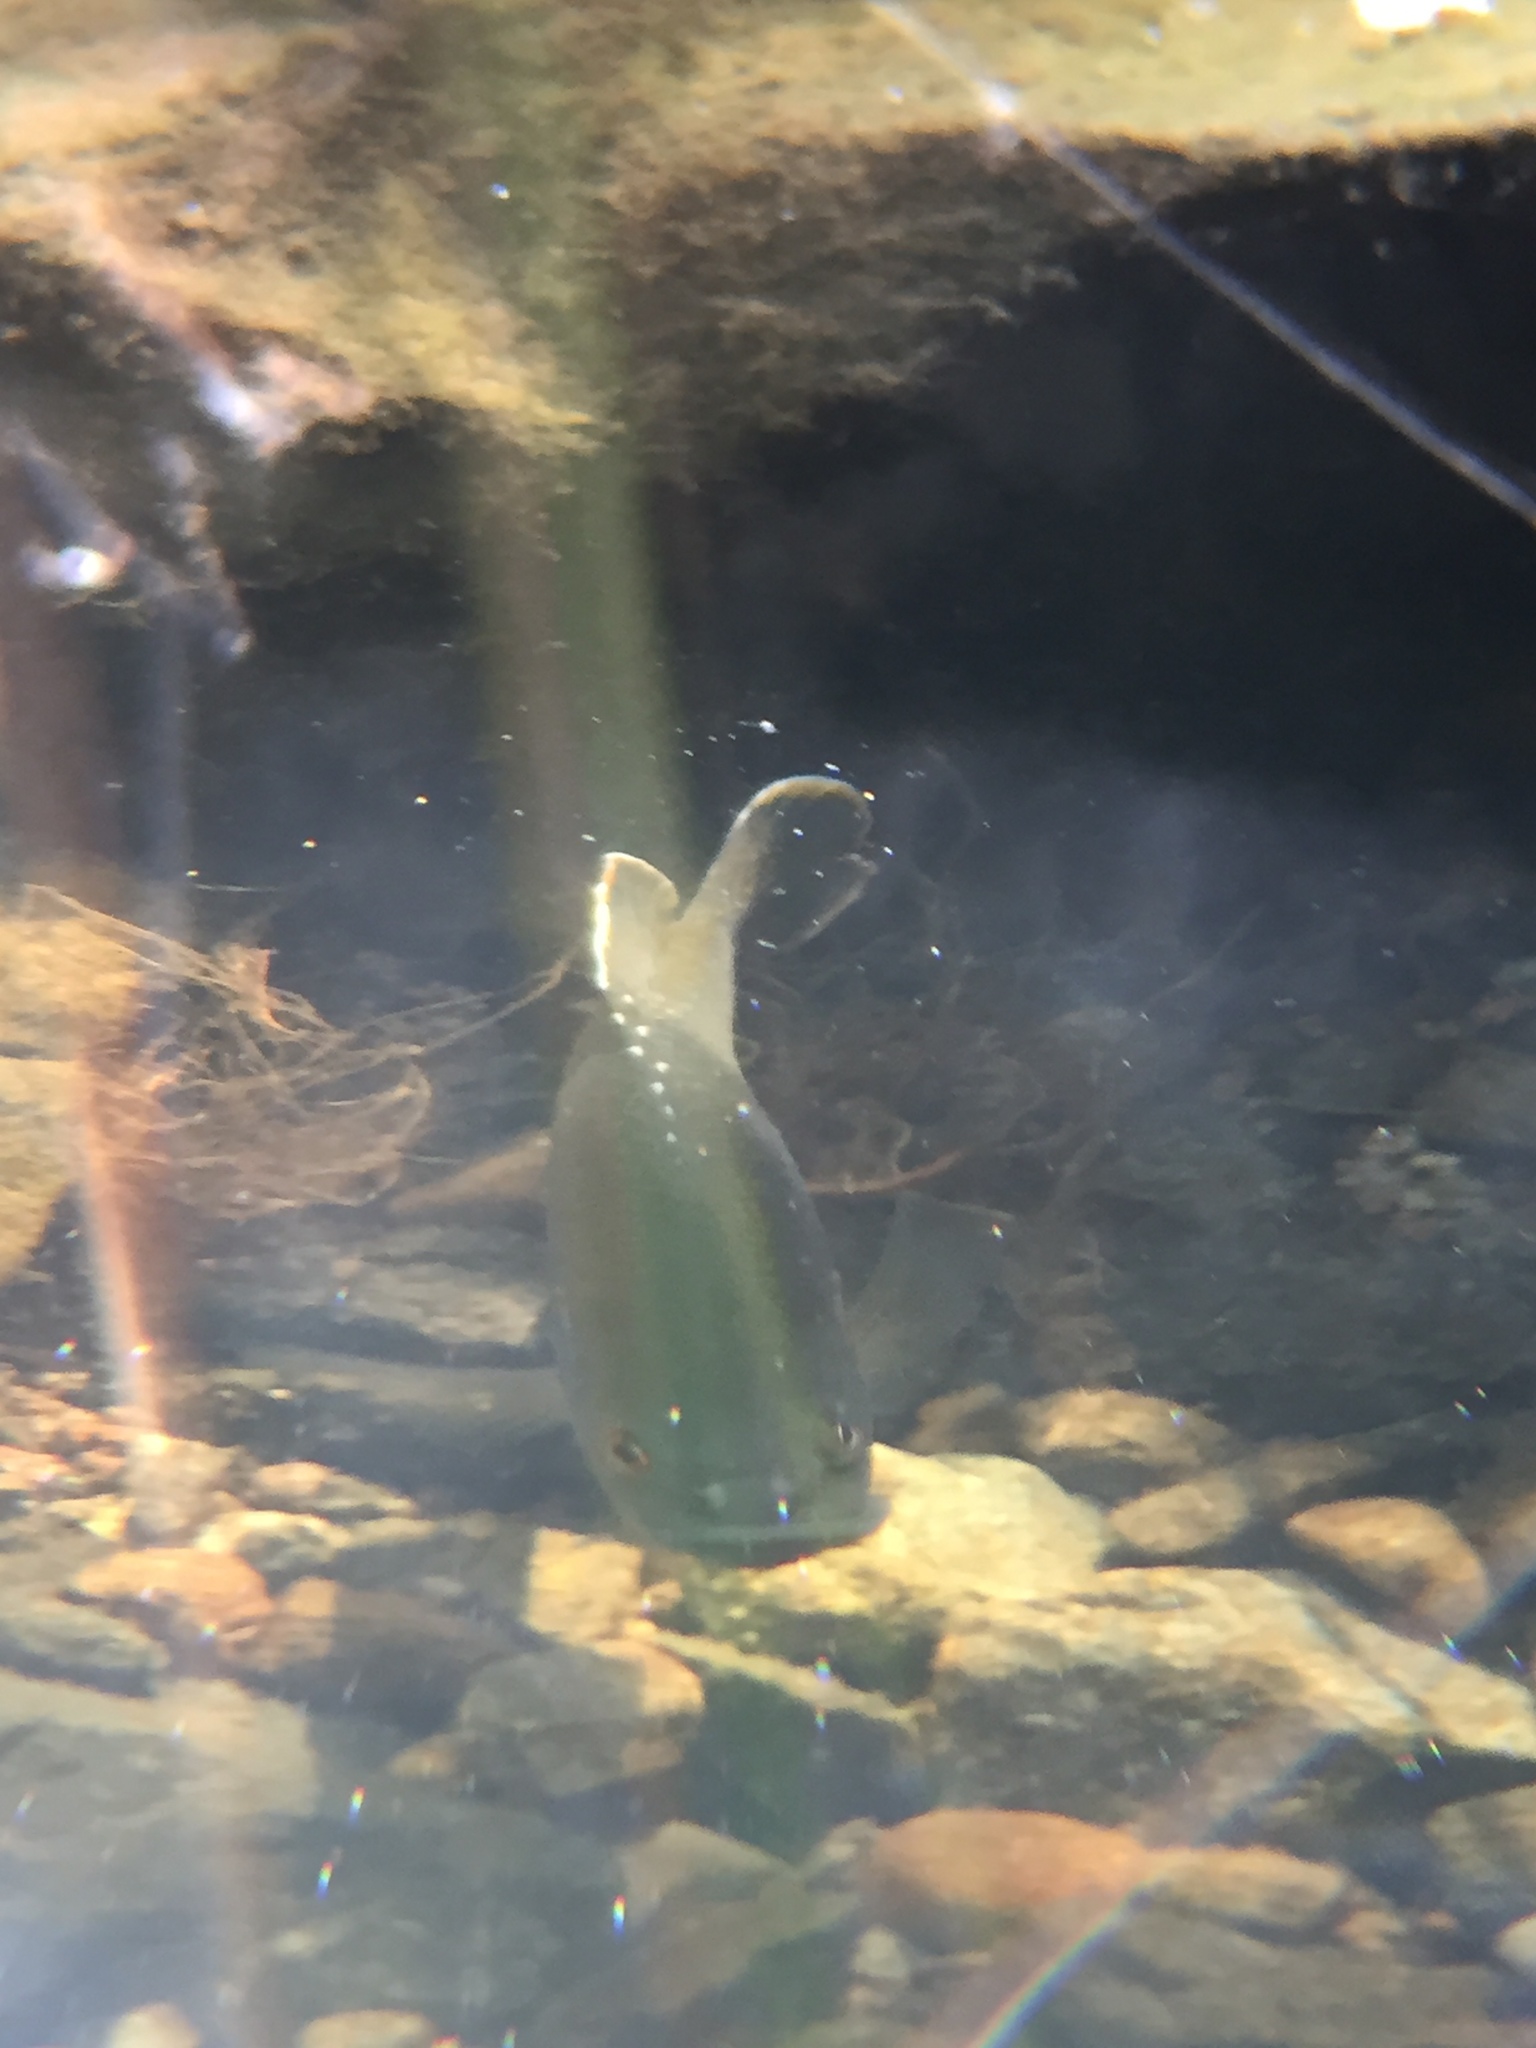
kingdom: Animalia
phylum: Chordata
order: Perciformes
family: Centrarchidae
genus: Lepomis
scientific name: Lepomis cyanellus
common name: Green sunfish
